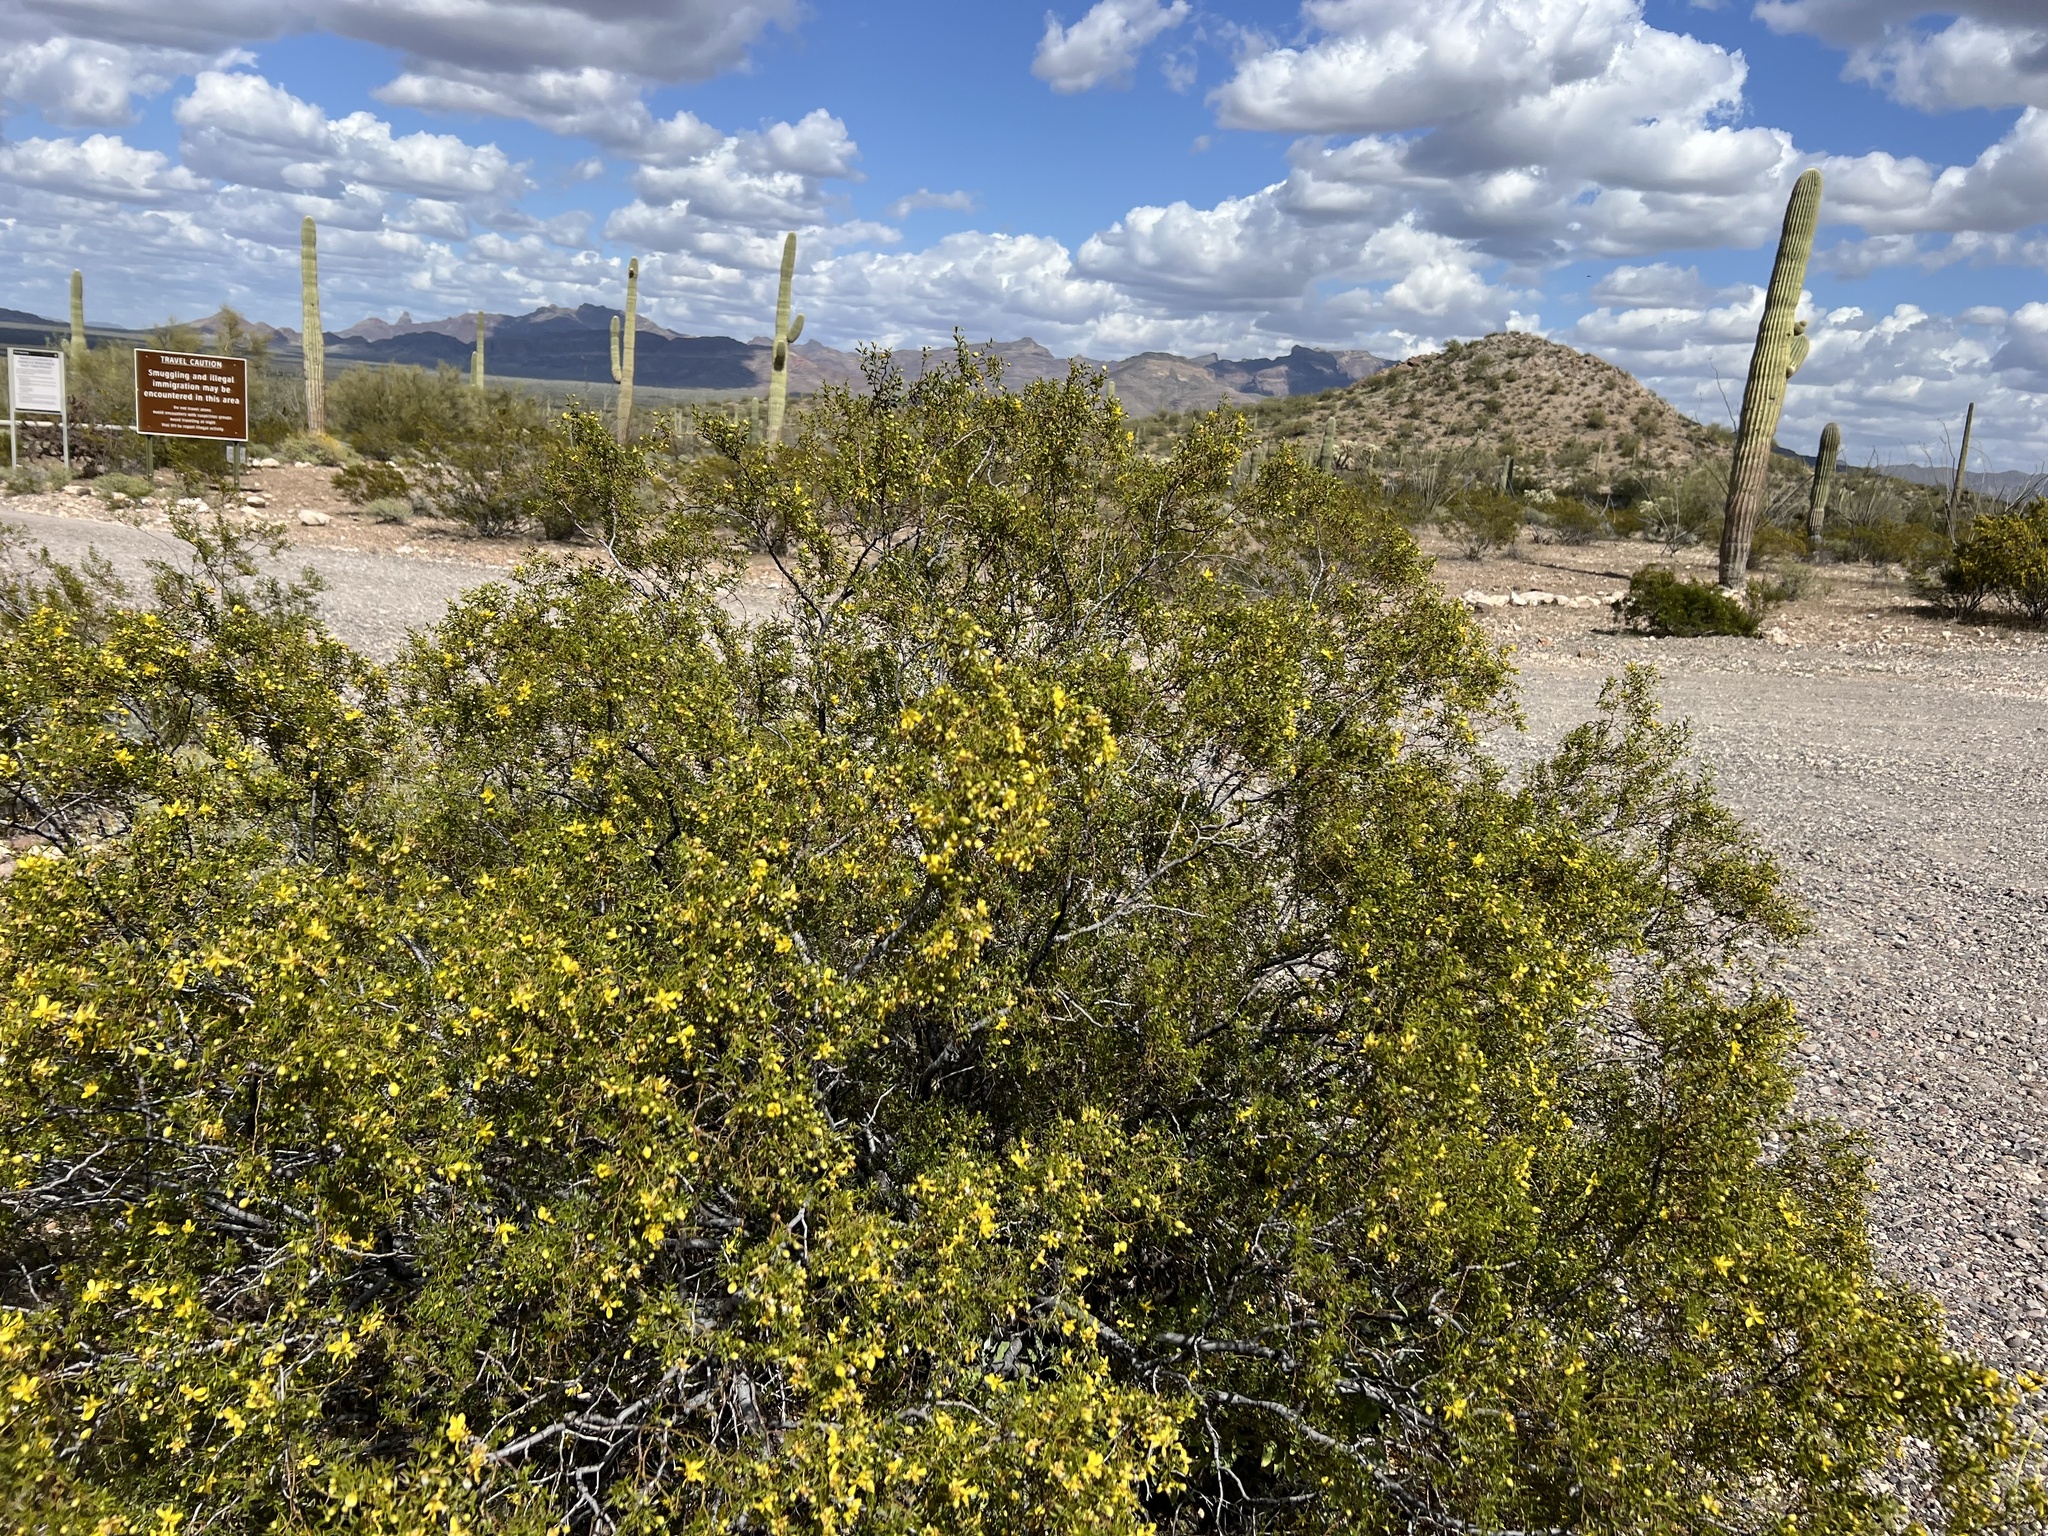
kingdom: Plantae
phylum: Tracheophyta
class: Magnoliopsida
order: Zygophyllales
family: Zygophyllaceae
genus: Larrea
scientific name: Larrea tridentata
